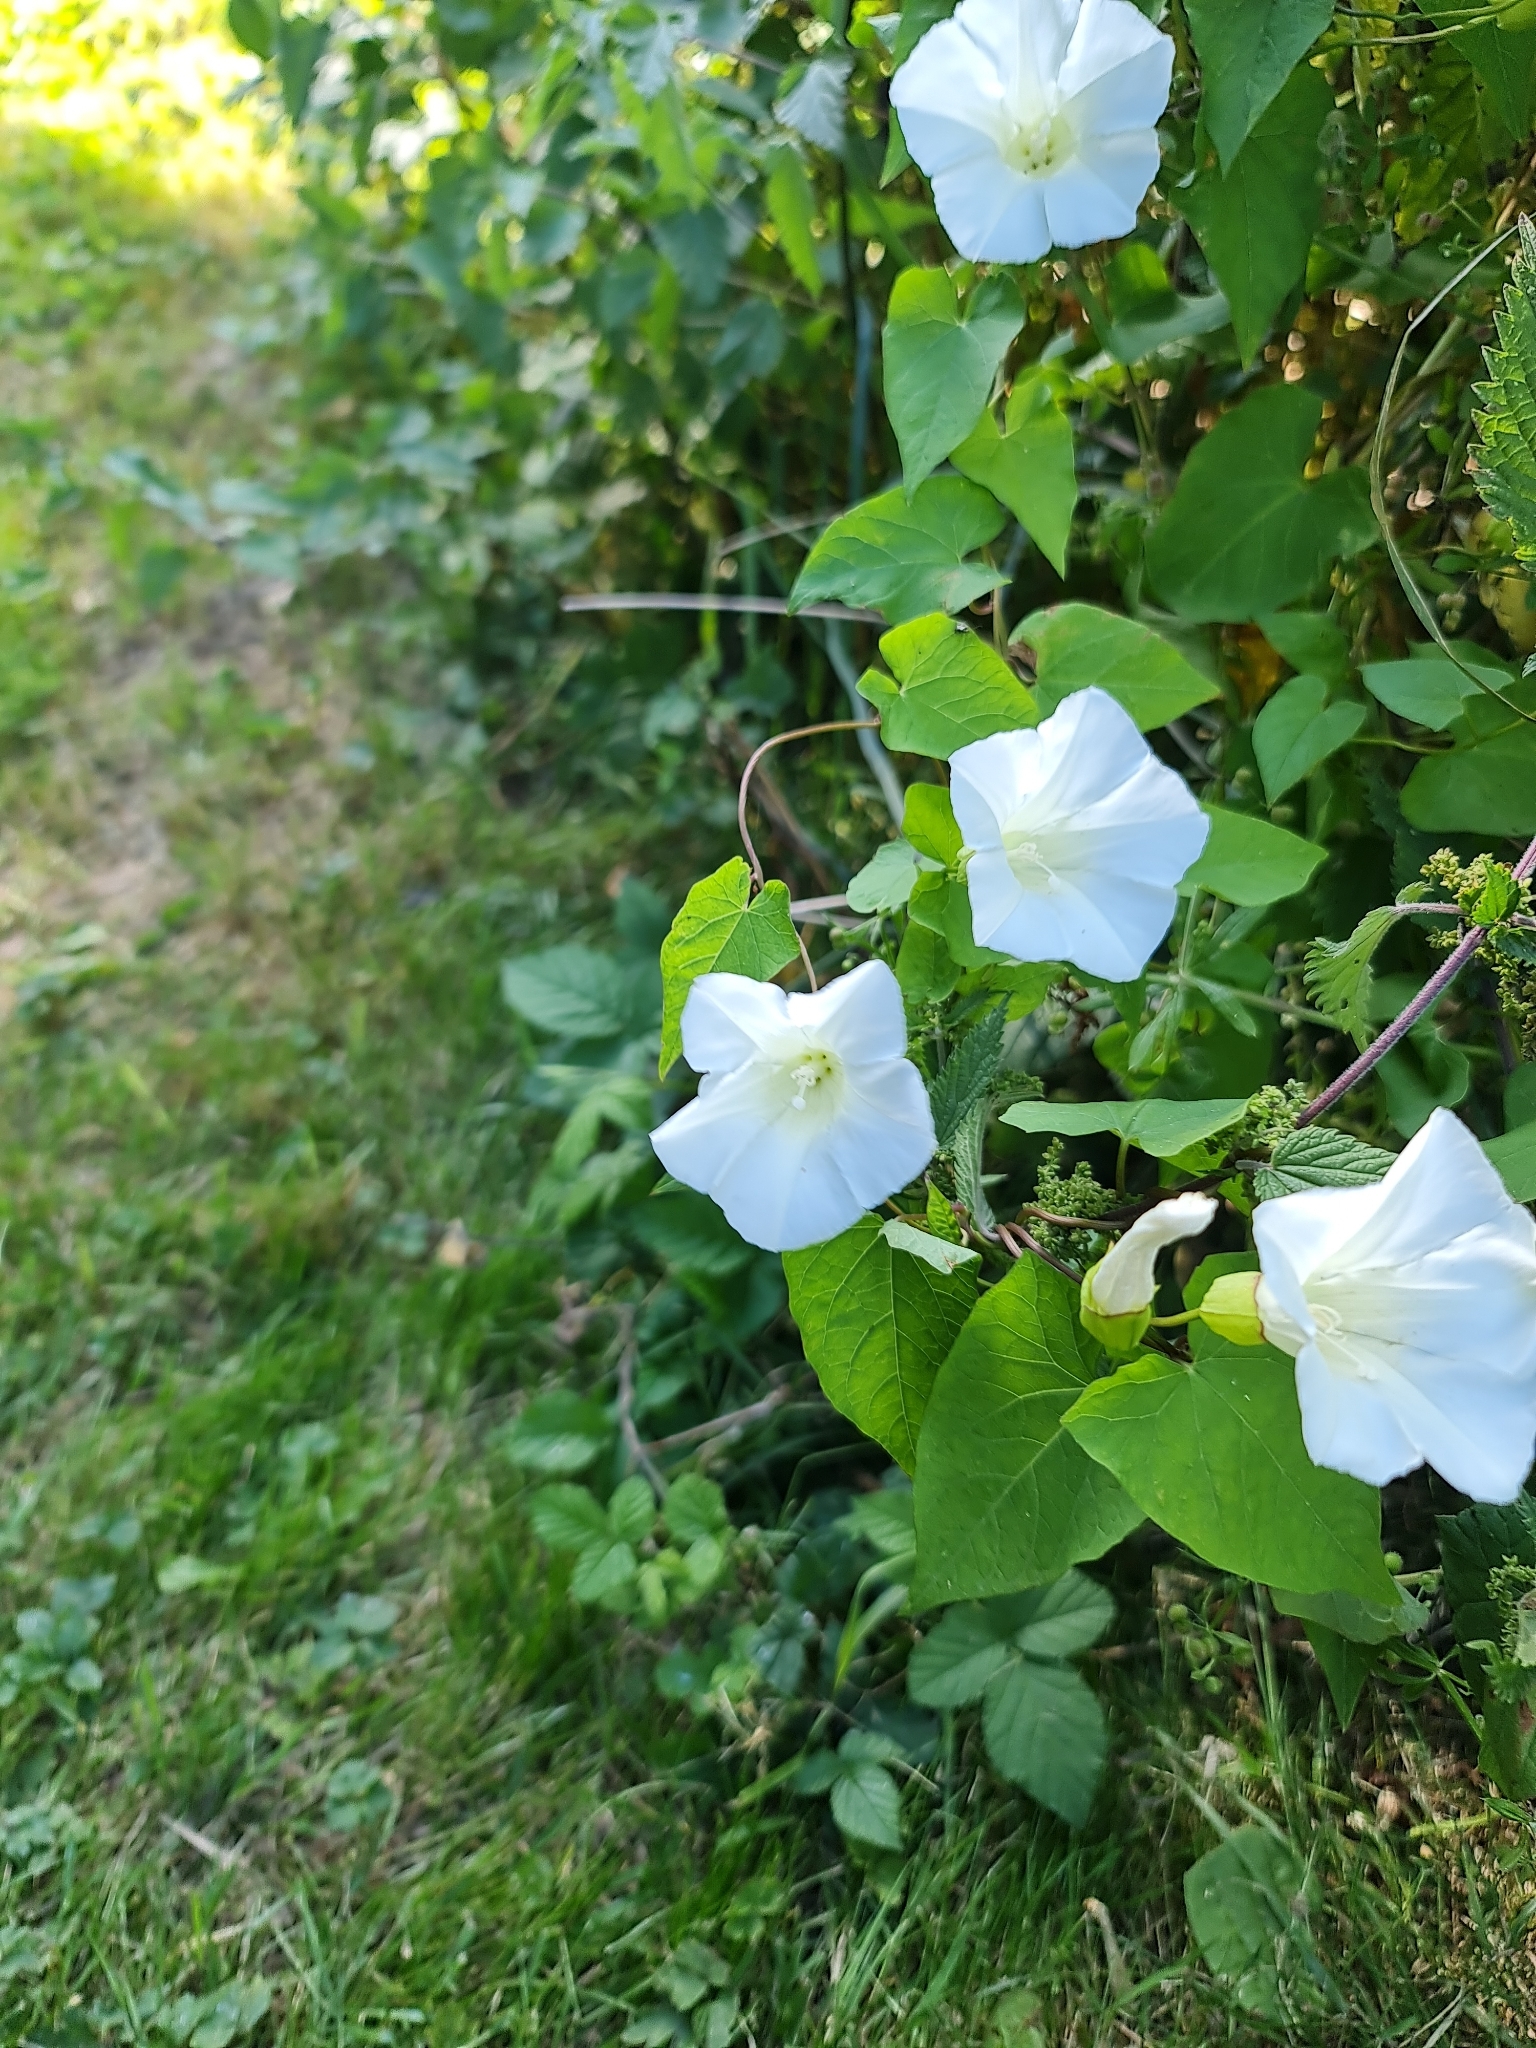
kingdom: Plantae
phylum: Tracheophyta
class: Magnoliopsida
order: Solanales
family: Convolvulaceae
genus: Calystegia
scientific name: Calystegia silvatica
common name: Large bindweed
